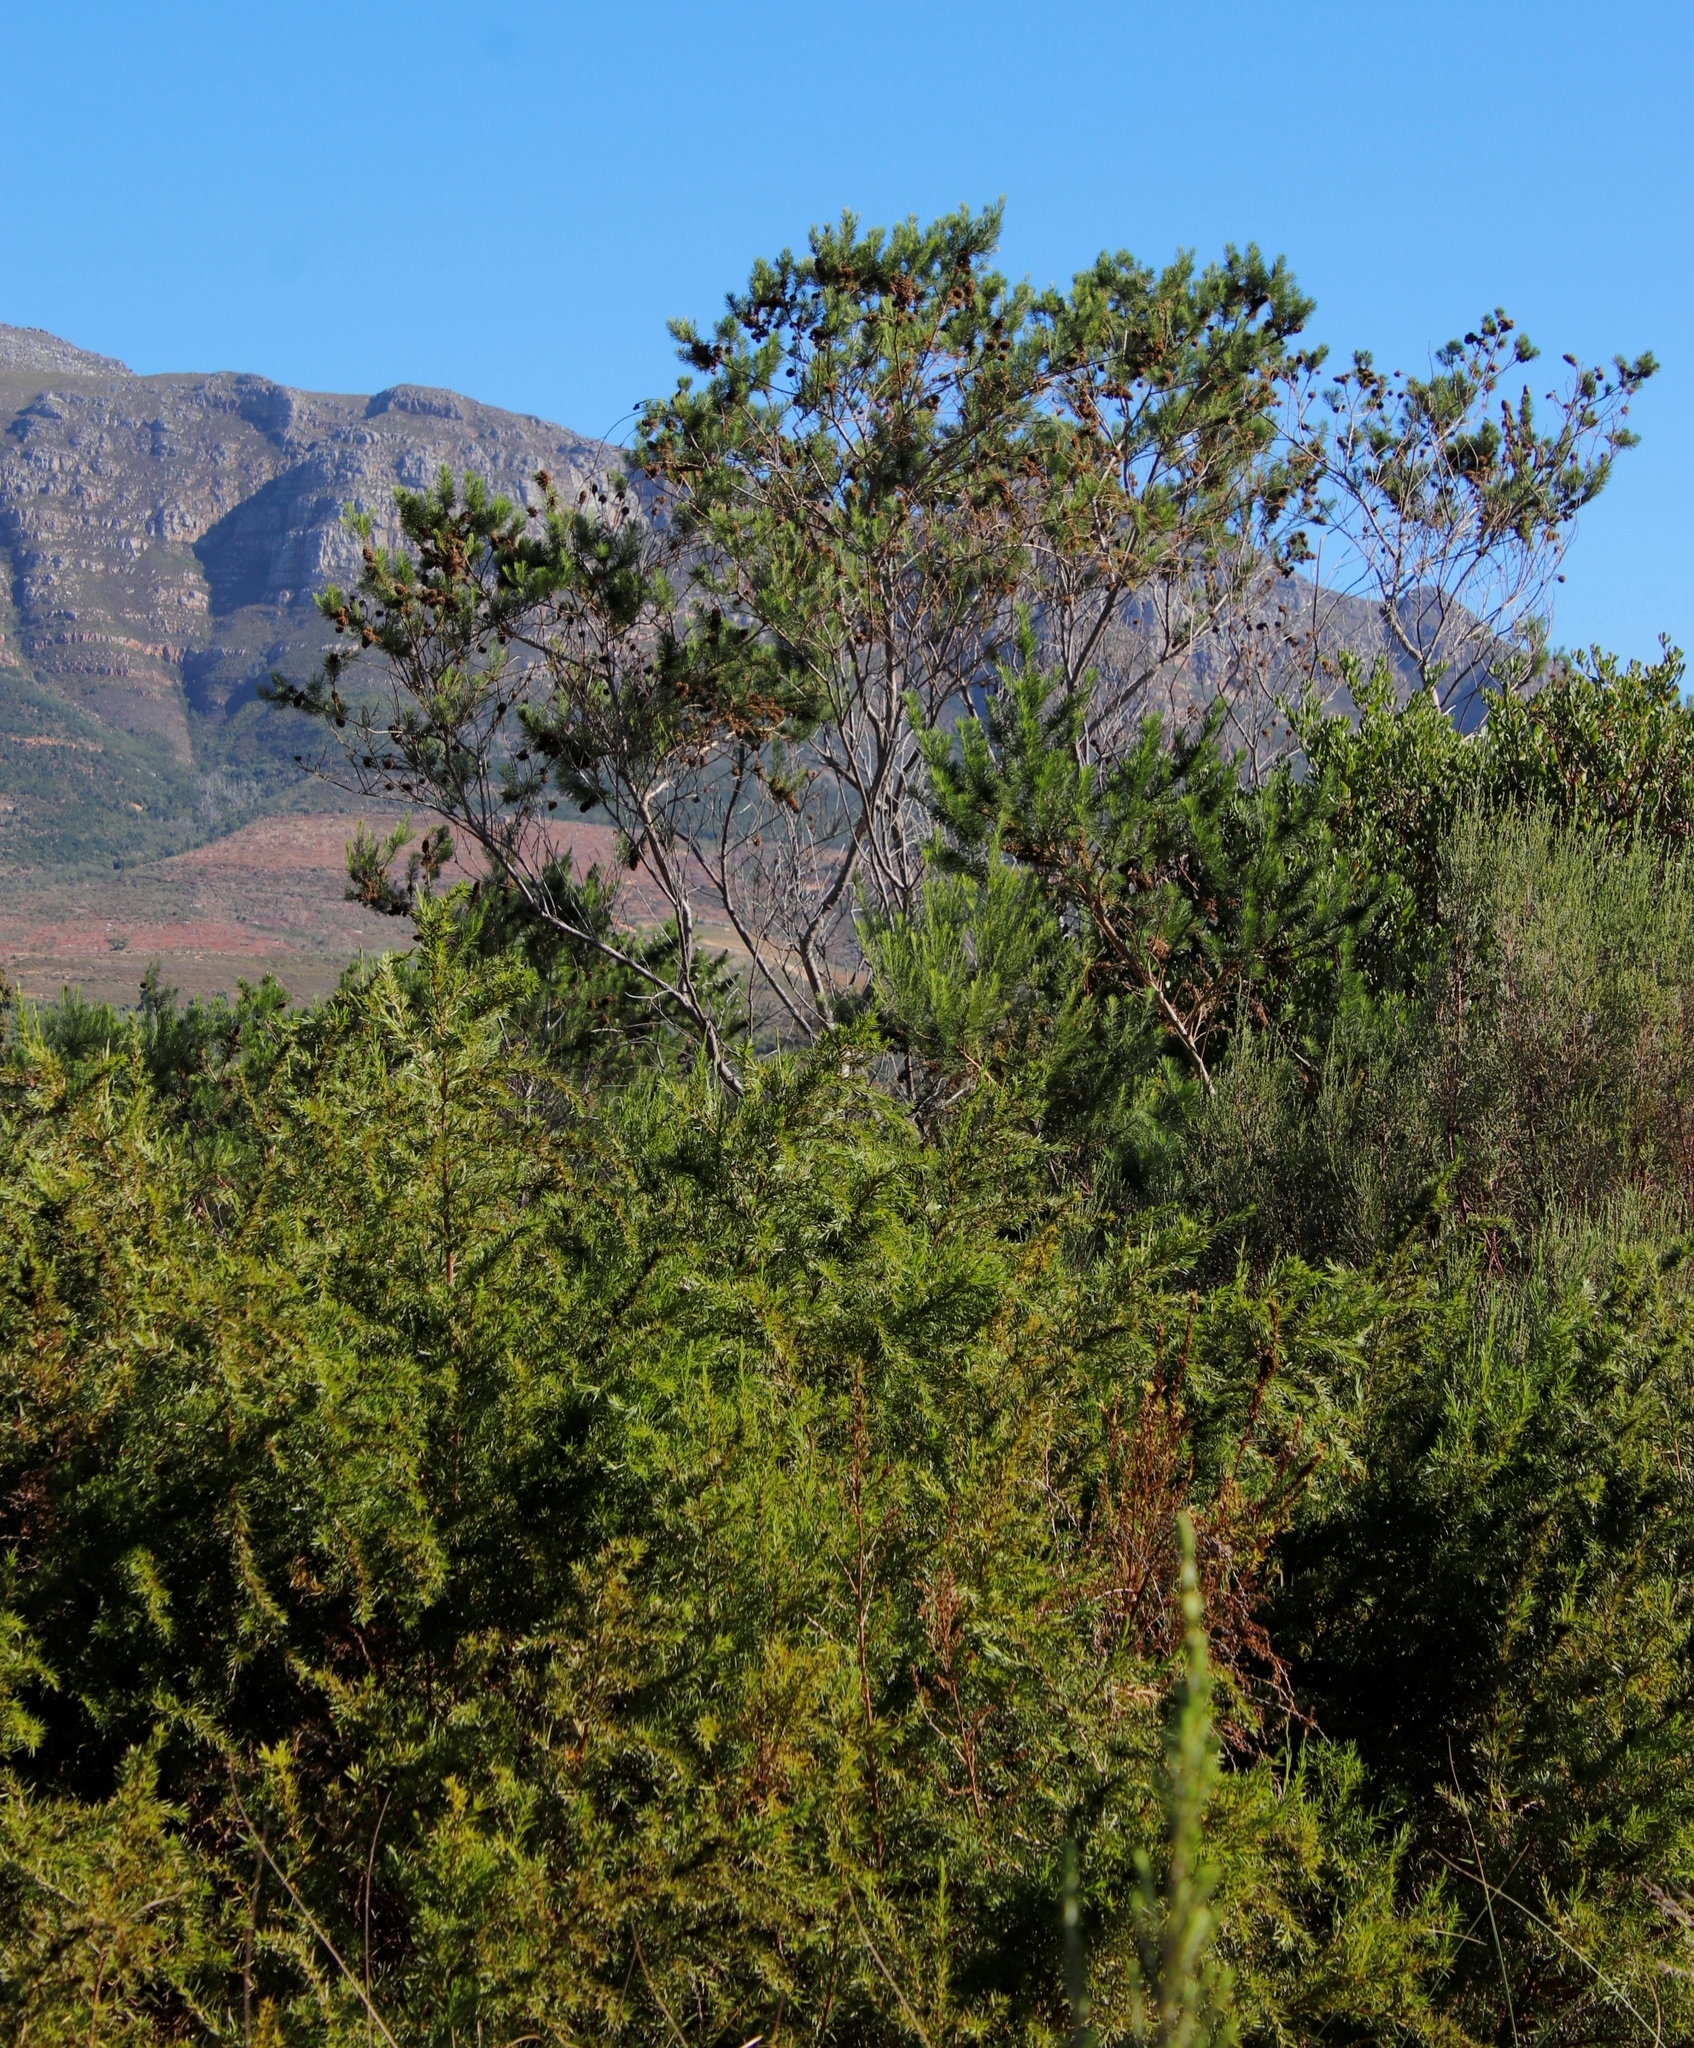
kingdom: Plantae
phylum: Tracheophyta
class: Magnoliopsida
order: Fabales
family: Fabaceae
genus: Psoralea
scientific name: Psoralea pinnata
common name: African scurfpea
